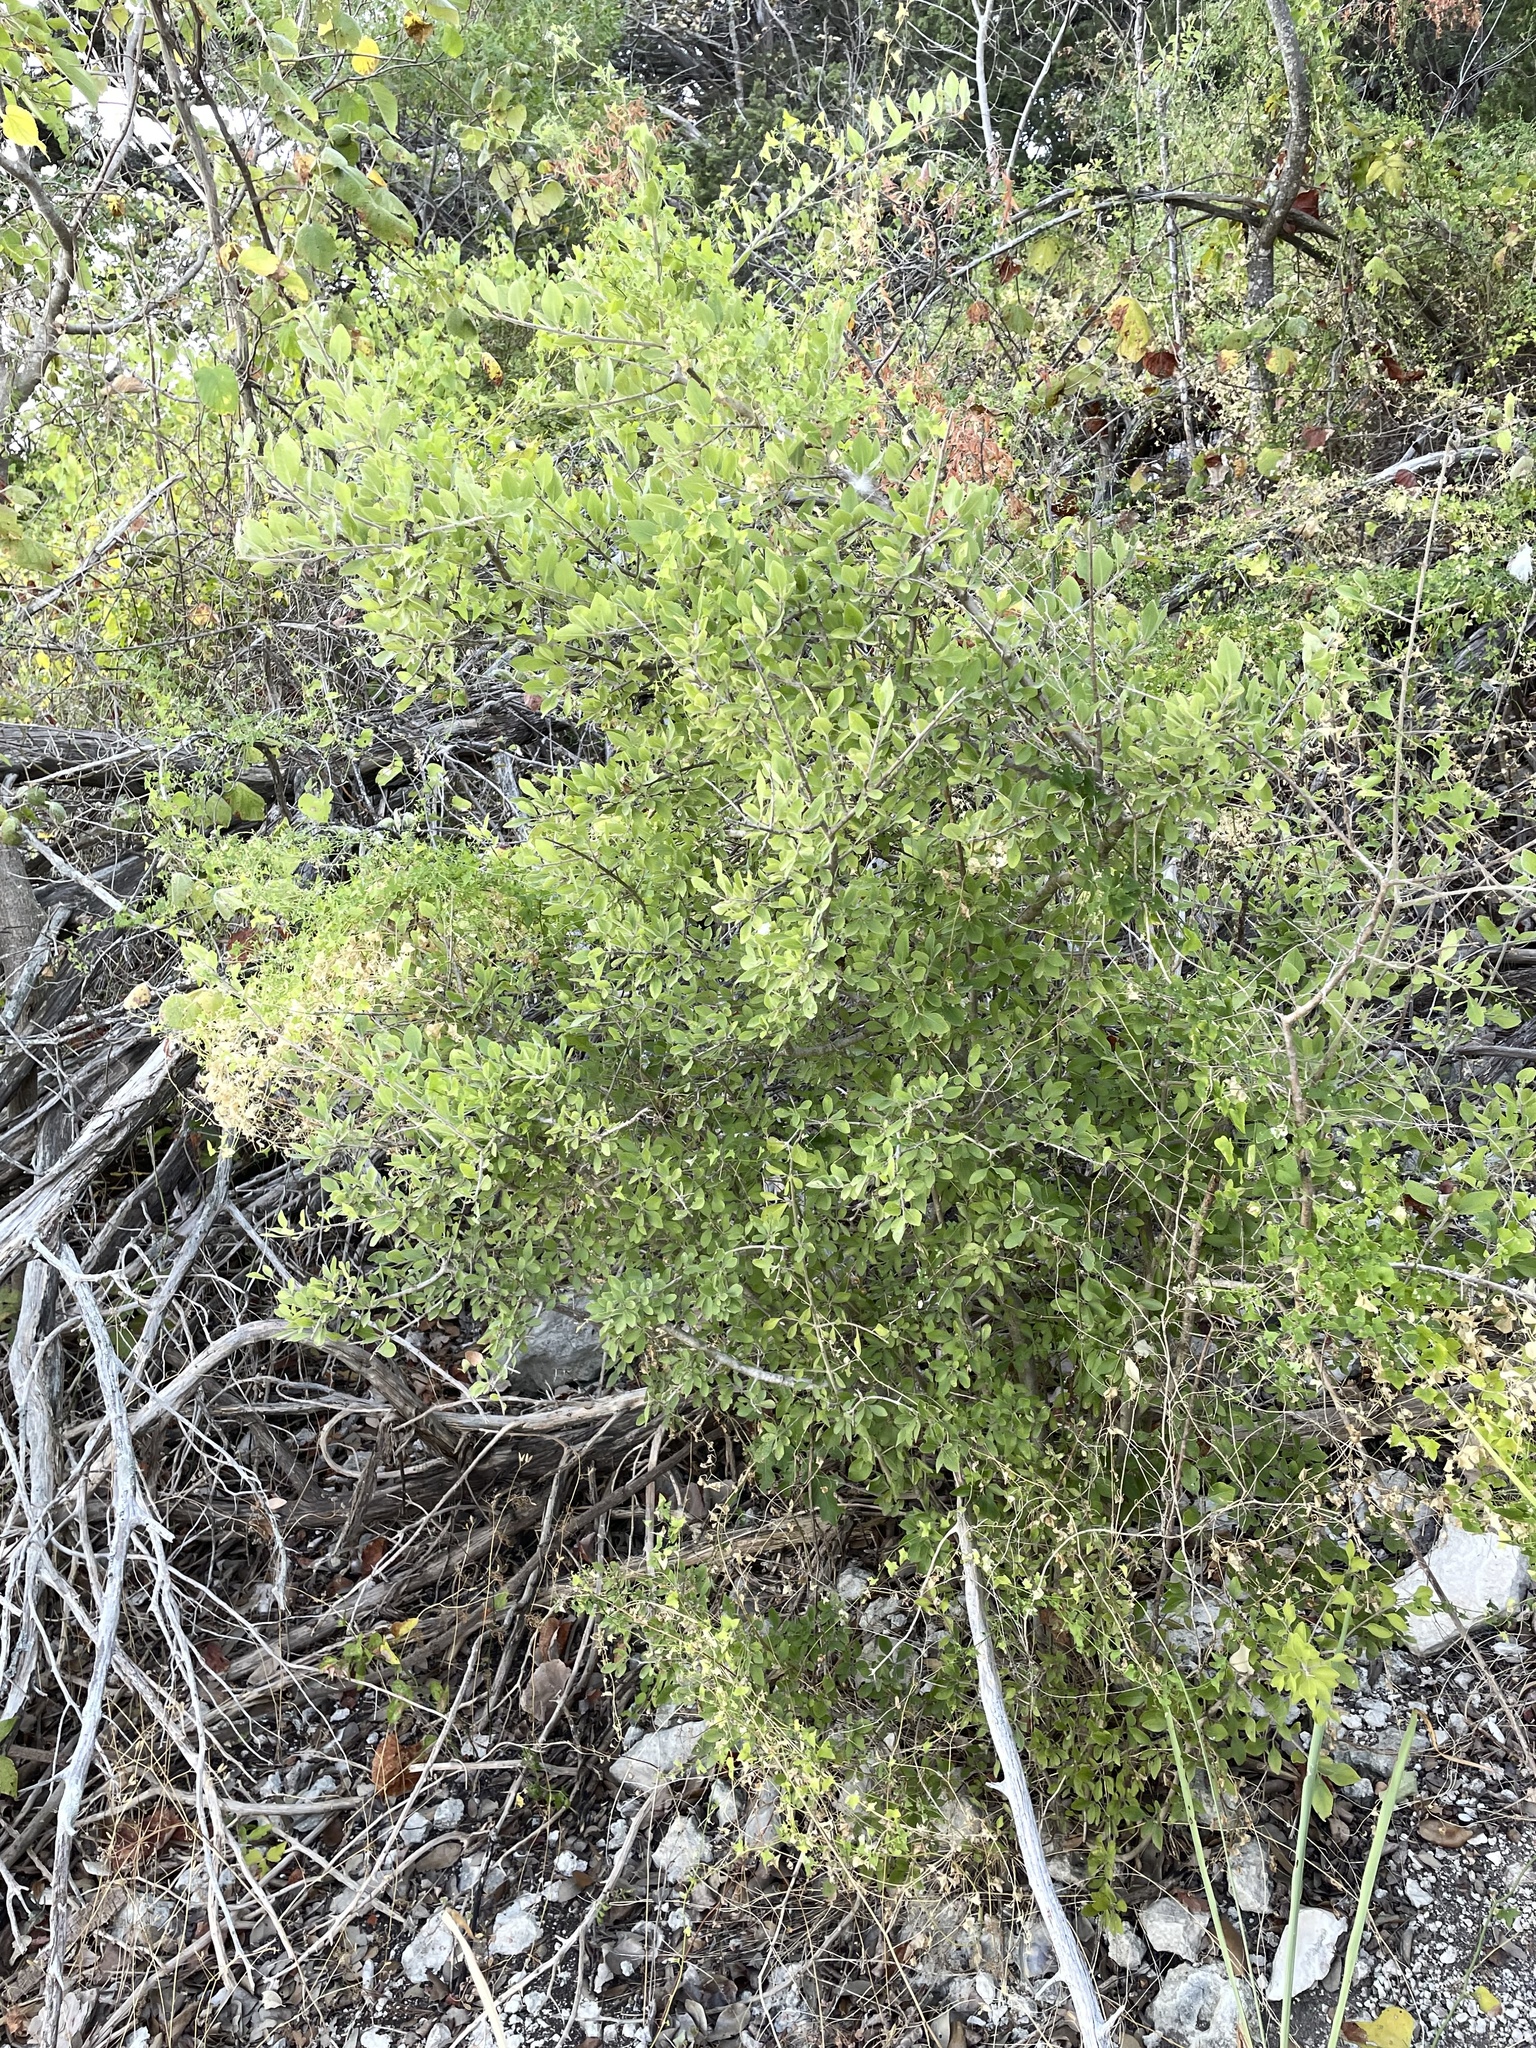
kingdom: Plantae
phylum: Tracheophyta
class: Magnoliopsida
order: Lamiales
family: Oleaceae
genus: Forestiera
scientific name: Forestiera pubescens
